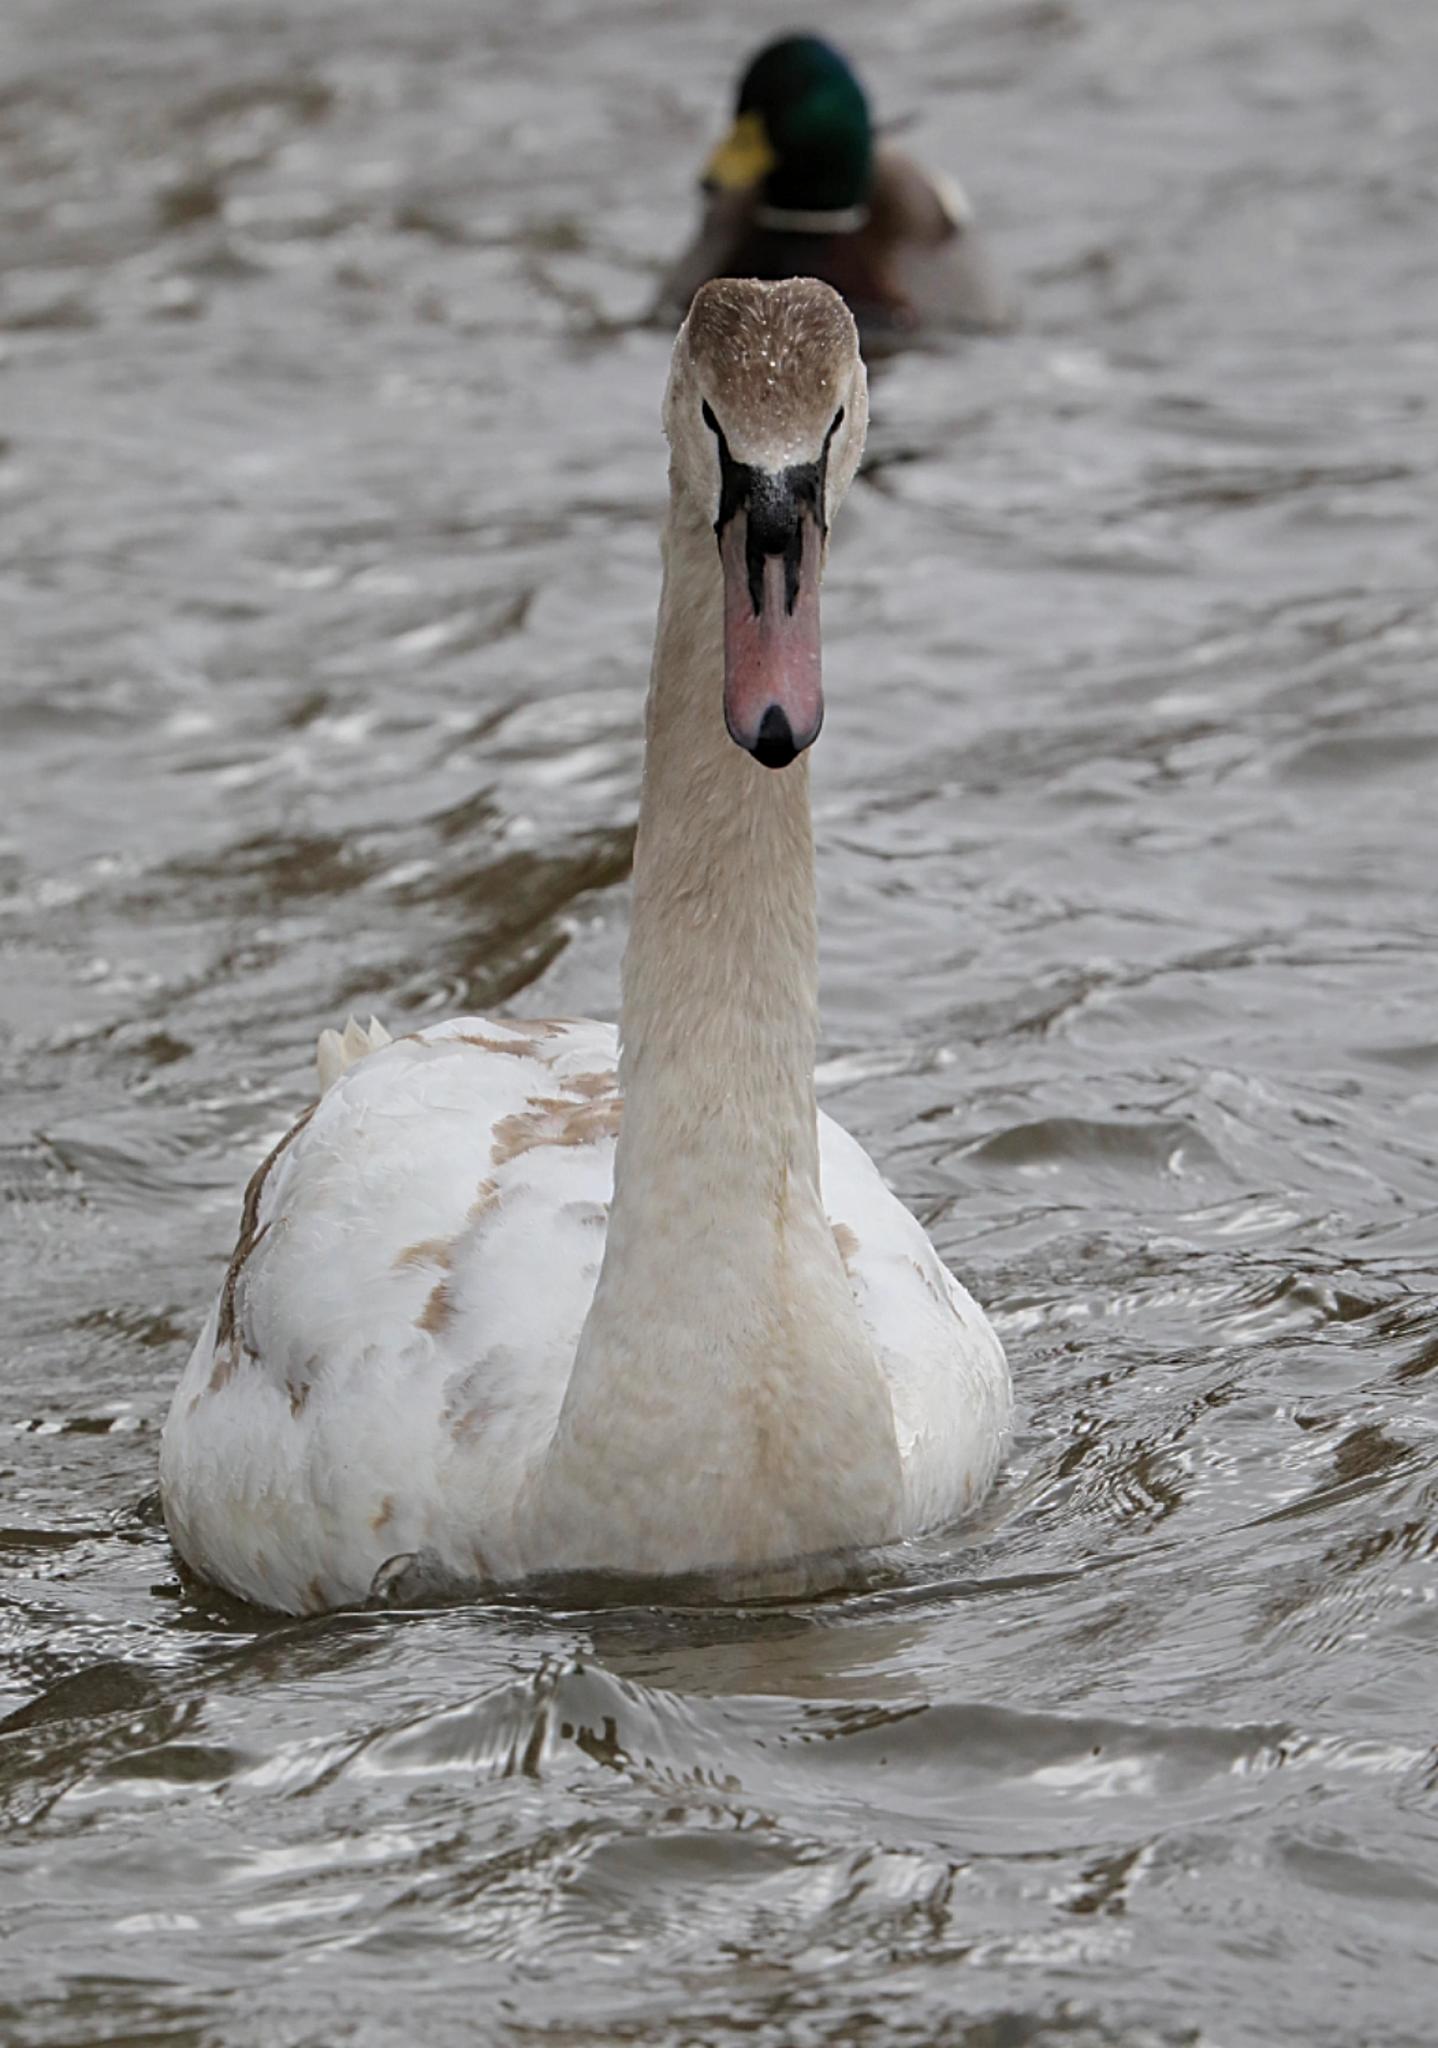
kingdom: Animalia
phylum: Chordata
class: Aves
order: Anseriformes
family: Anatidae
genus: Cygnus
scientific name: Cygnus olor
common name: Mute swan
